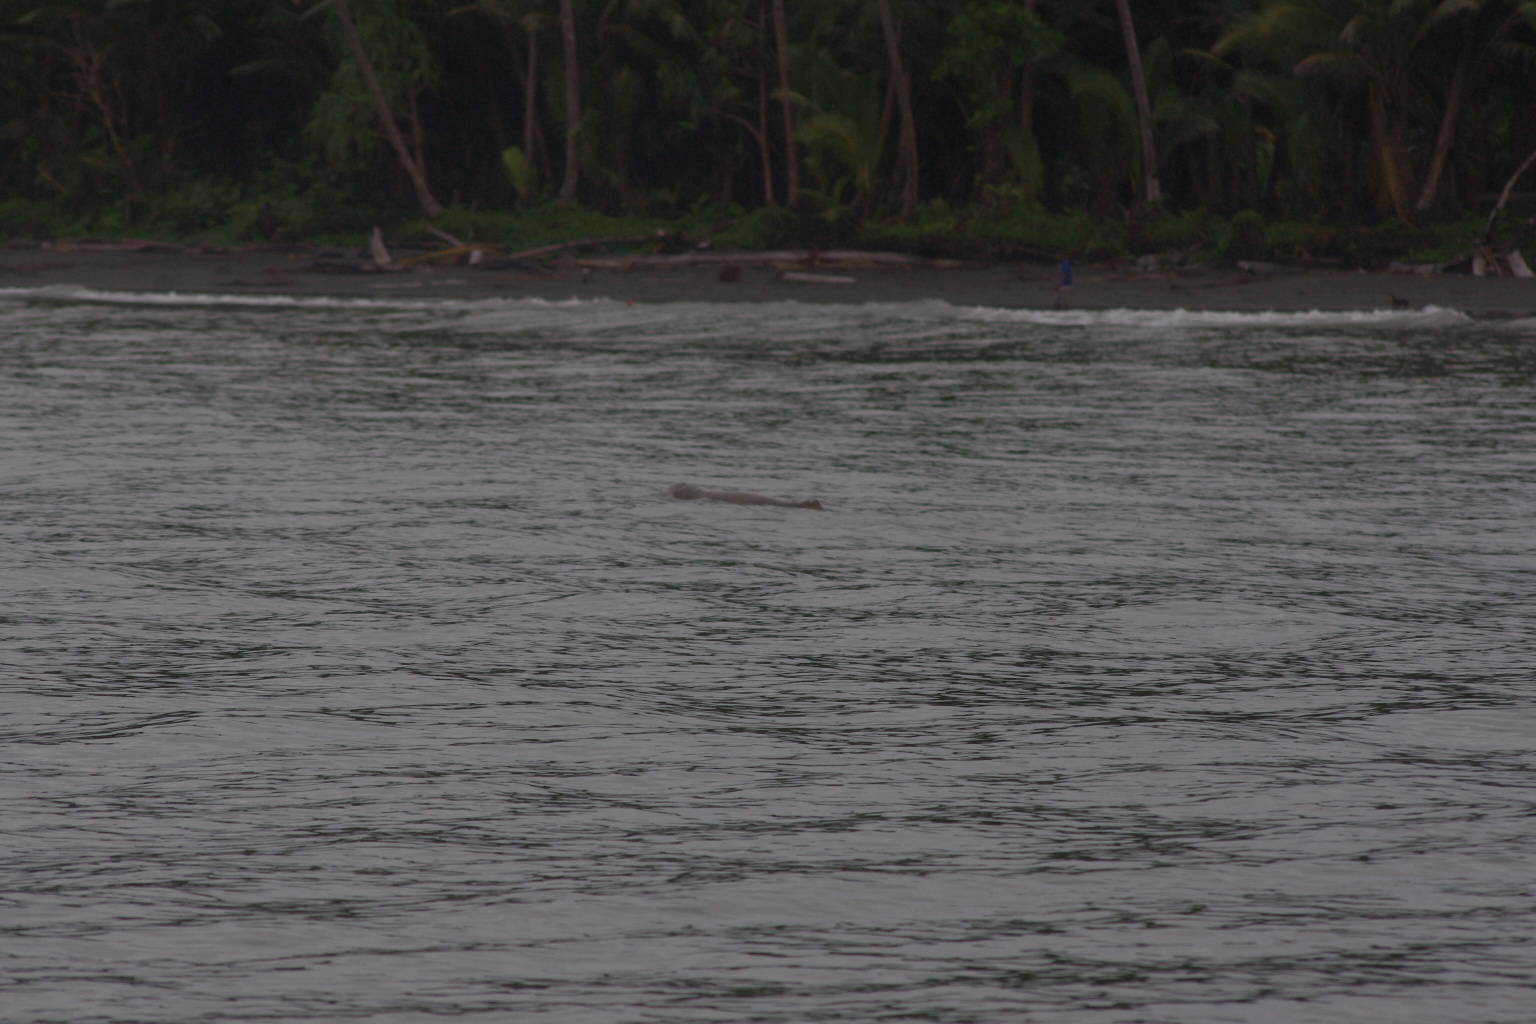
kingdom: Animalia
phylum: Chordata
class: Mammalia
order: Cetacea
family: Delphinidae
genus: Orcaella
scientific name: Orcaella heinsohni
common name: Australian snubfin dolphin
